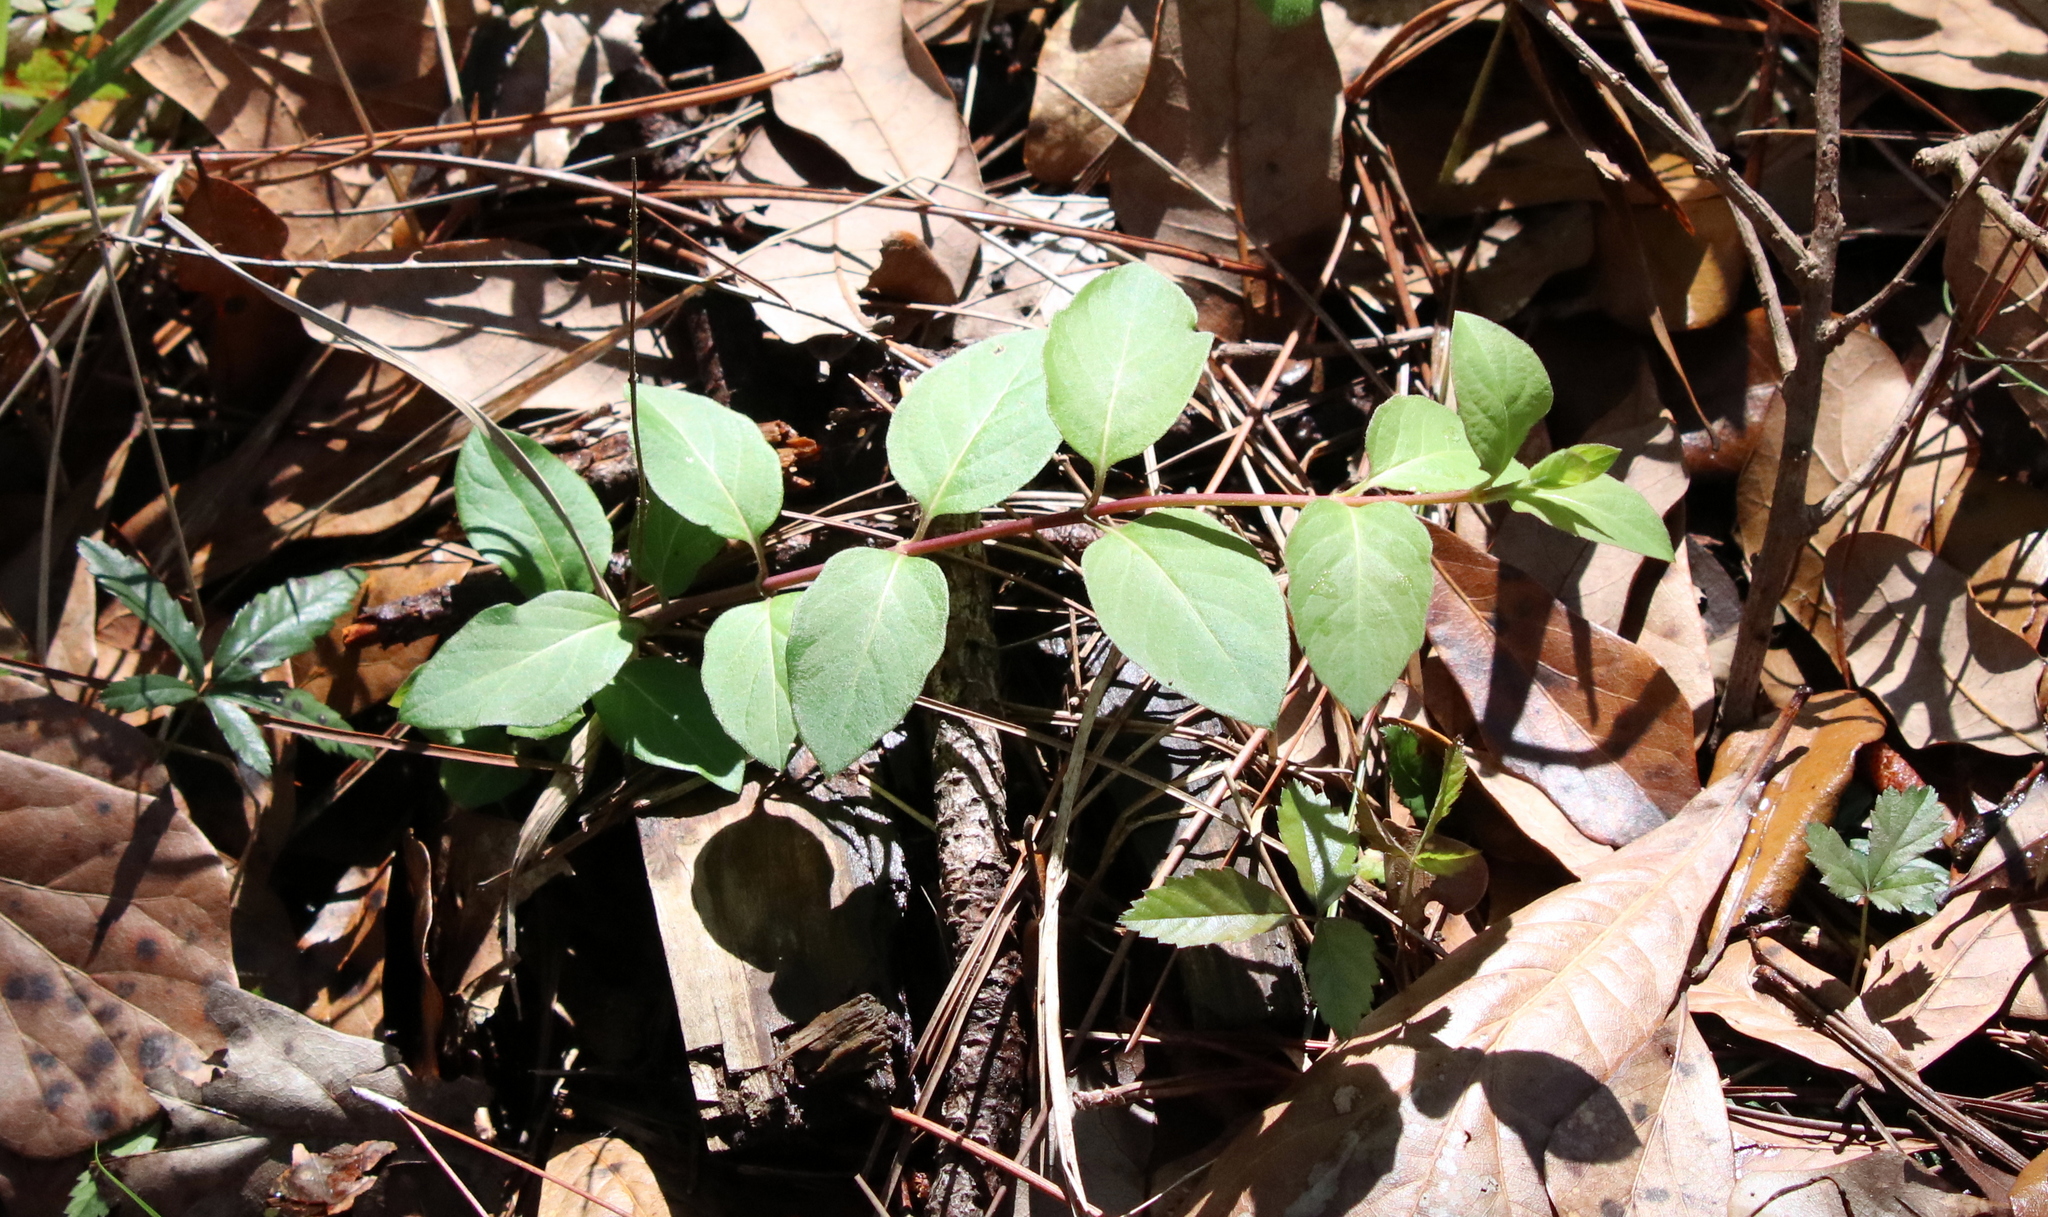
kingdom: Plantae
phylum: Tracheophyta
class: Magnoliopsida
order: Dipsacales
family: Caprifoliaceae
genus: Lonicera
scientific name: Lonicera japonica
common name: Japanese honeysuckle
